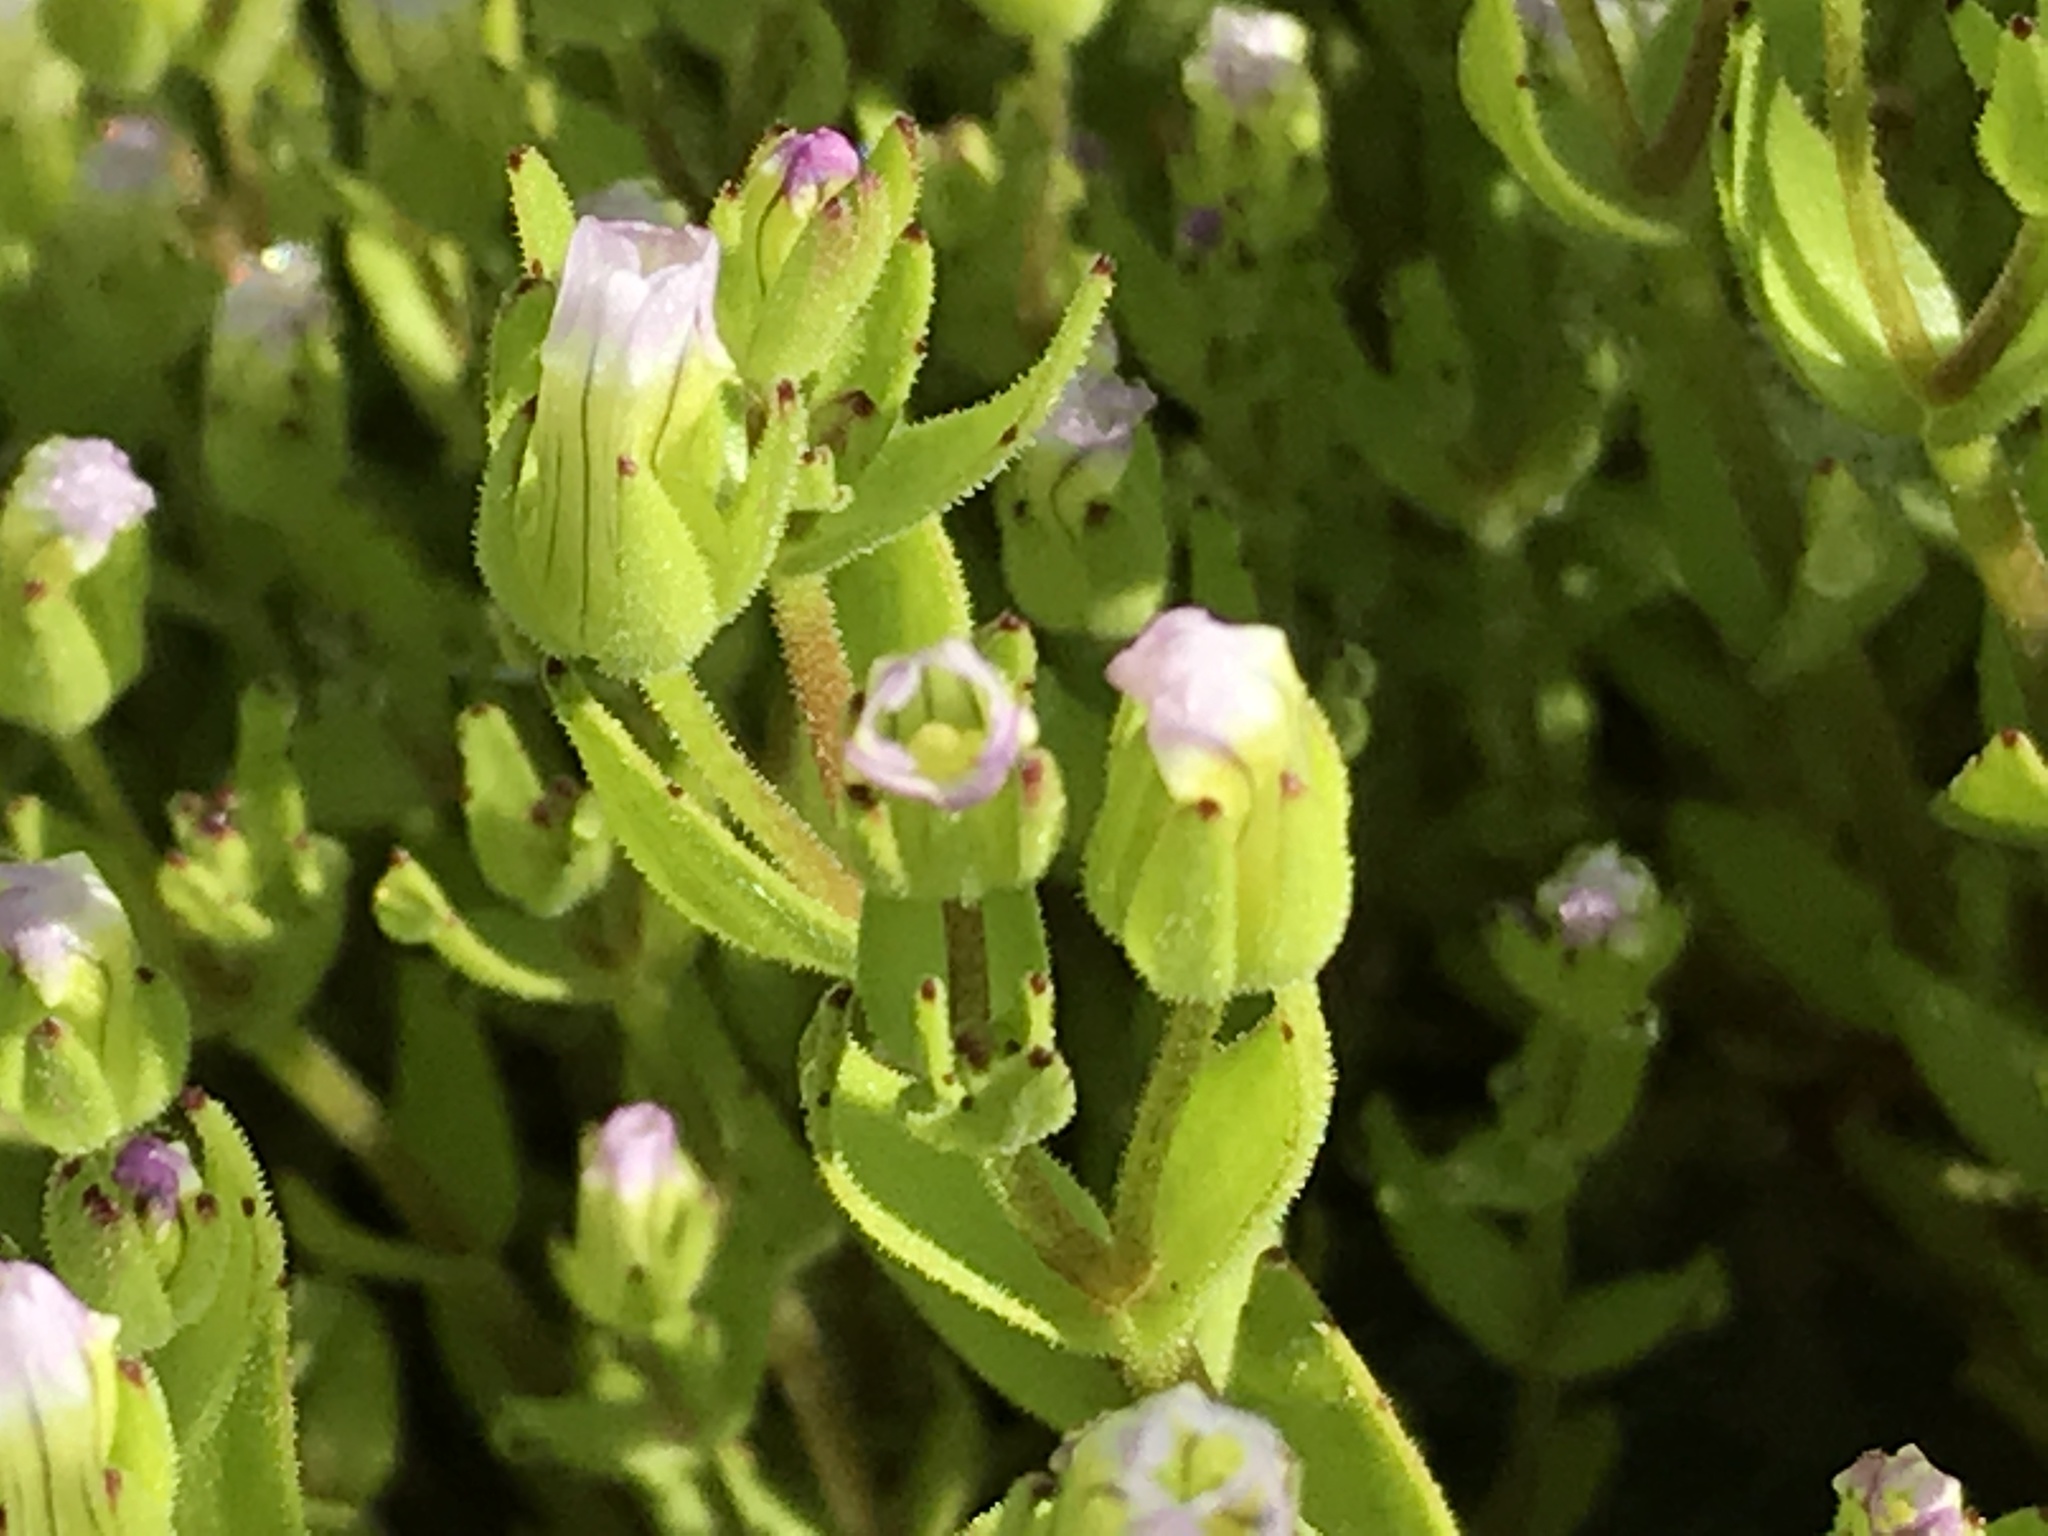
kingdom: Plantae
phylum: Tracheophyta
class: Magnoliopsida
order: Lamiales
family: Plantaginaceae
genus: Gratiola
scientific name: Gratiola ebracteata
